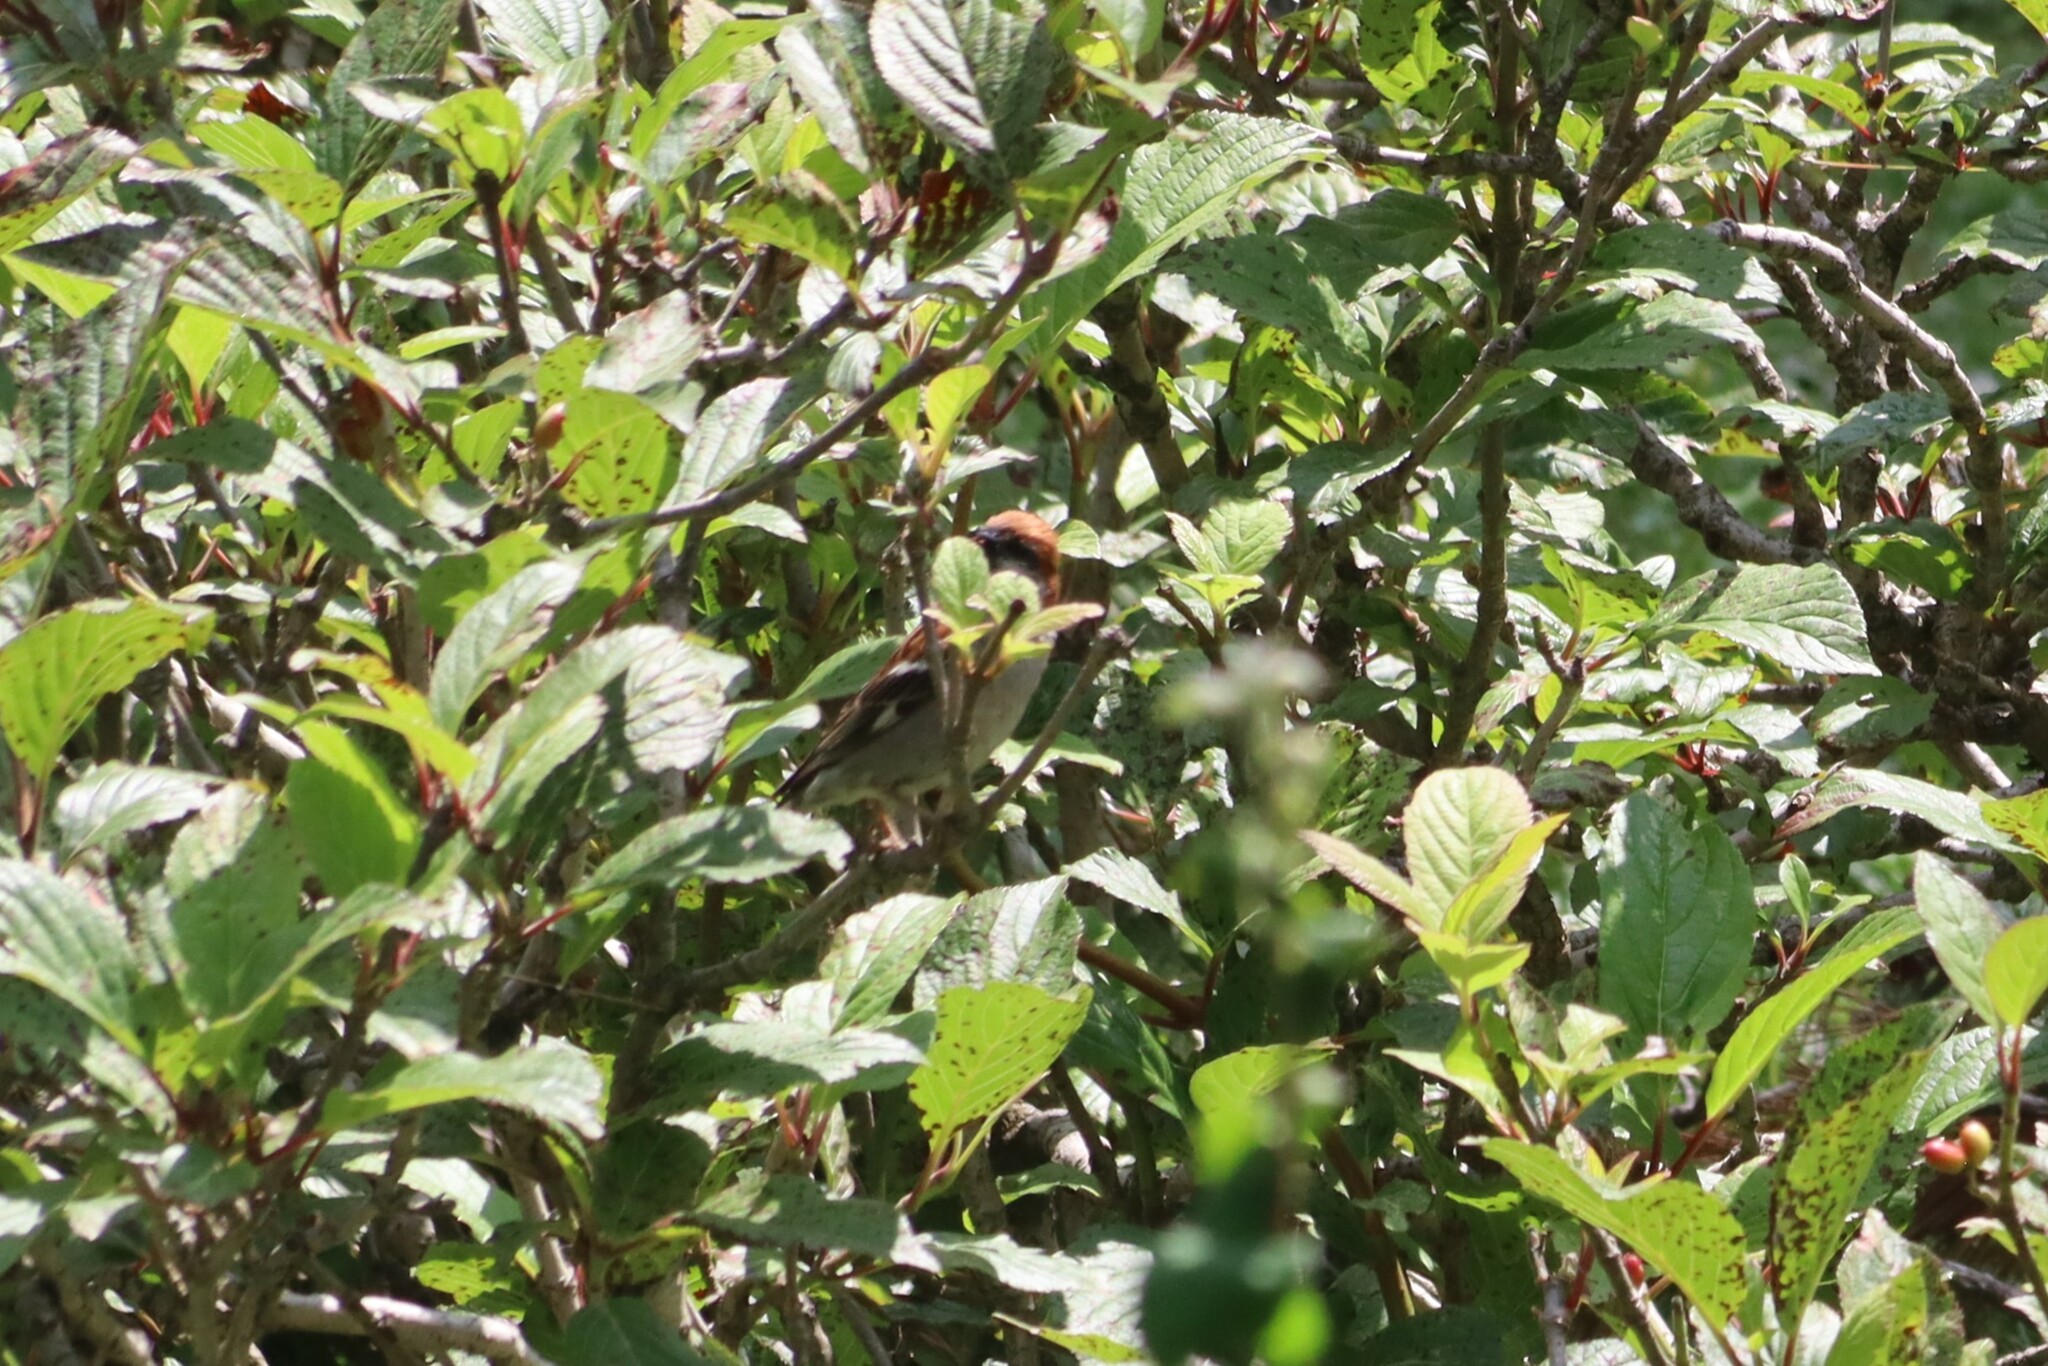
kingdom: Animalia
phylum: Chordata
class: Aves
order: Passeriformes
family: Passeridae
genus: Passer
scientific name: Passer cinnamomeus
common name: Russet sparrow
